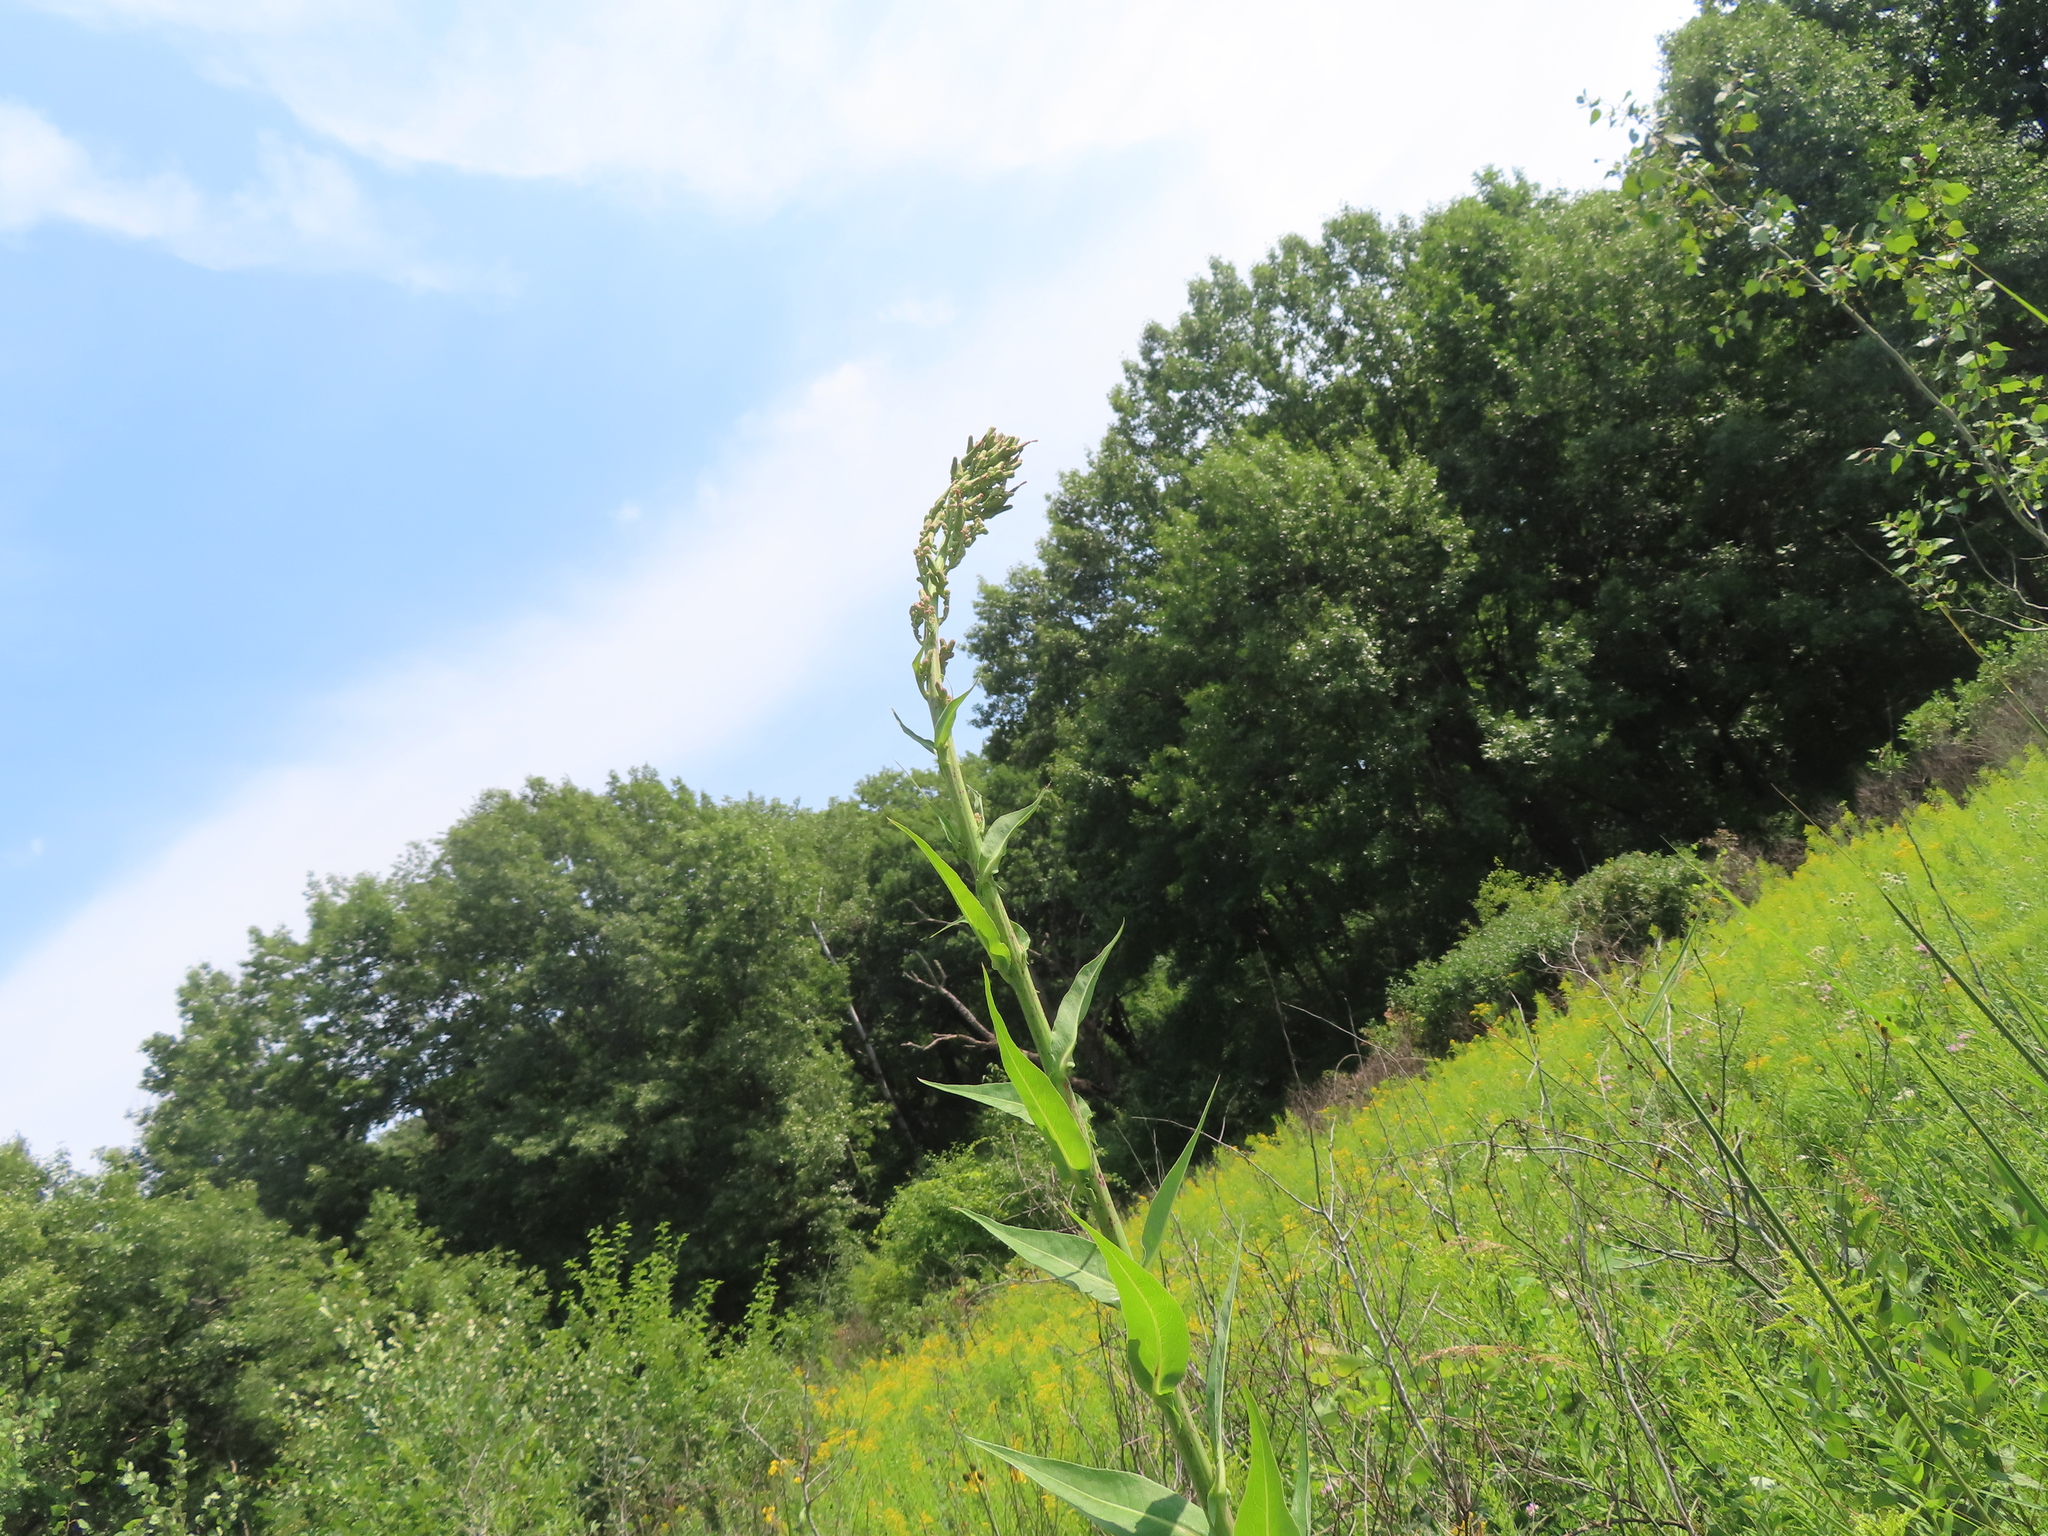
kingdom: Plantae
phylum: Tracheophyta
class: Magnoliopsida
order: Asterales
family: Asteraceae
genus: Lactuca
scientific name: Lactuca canadensis
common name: Canada lettuce
